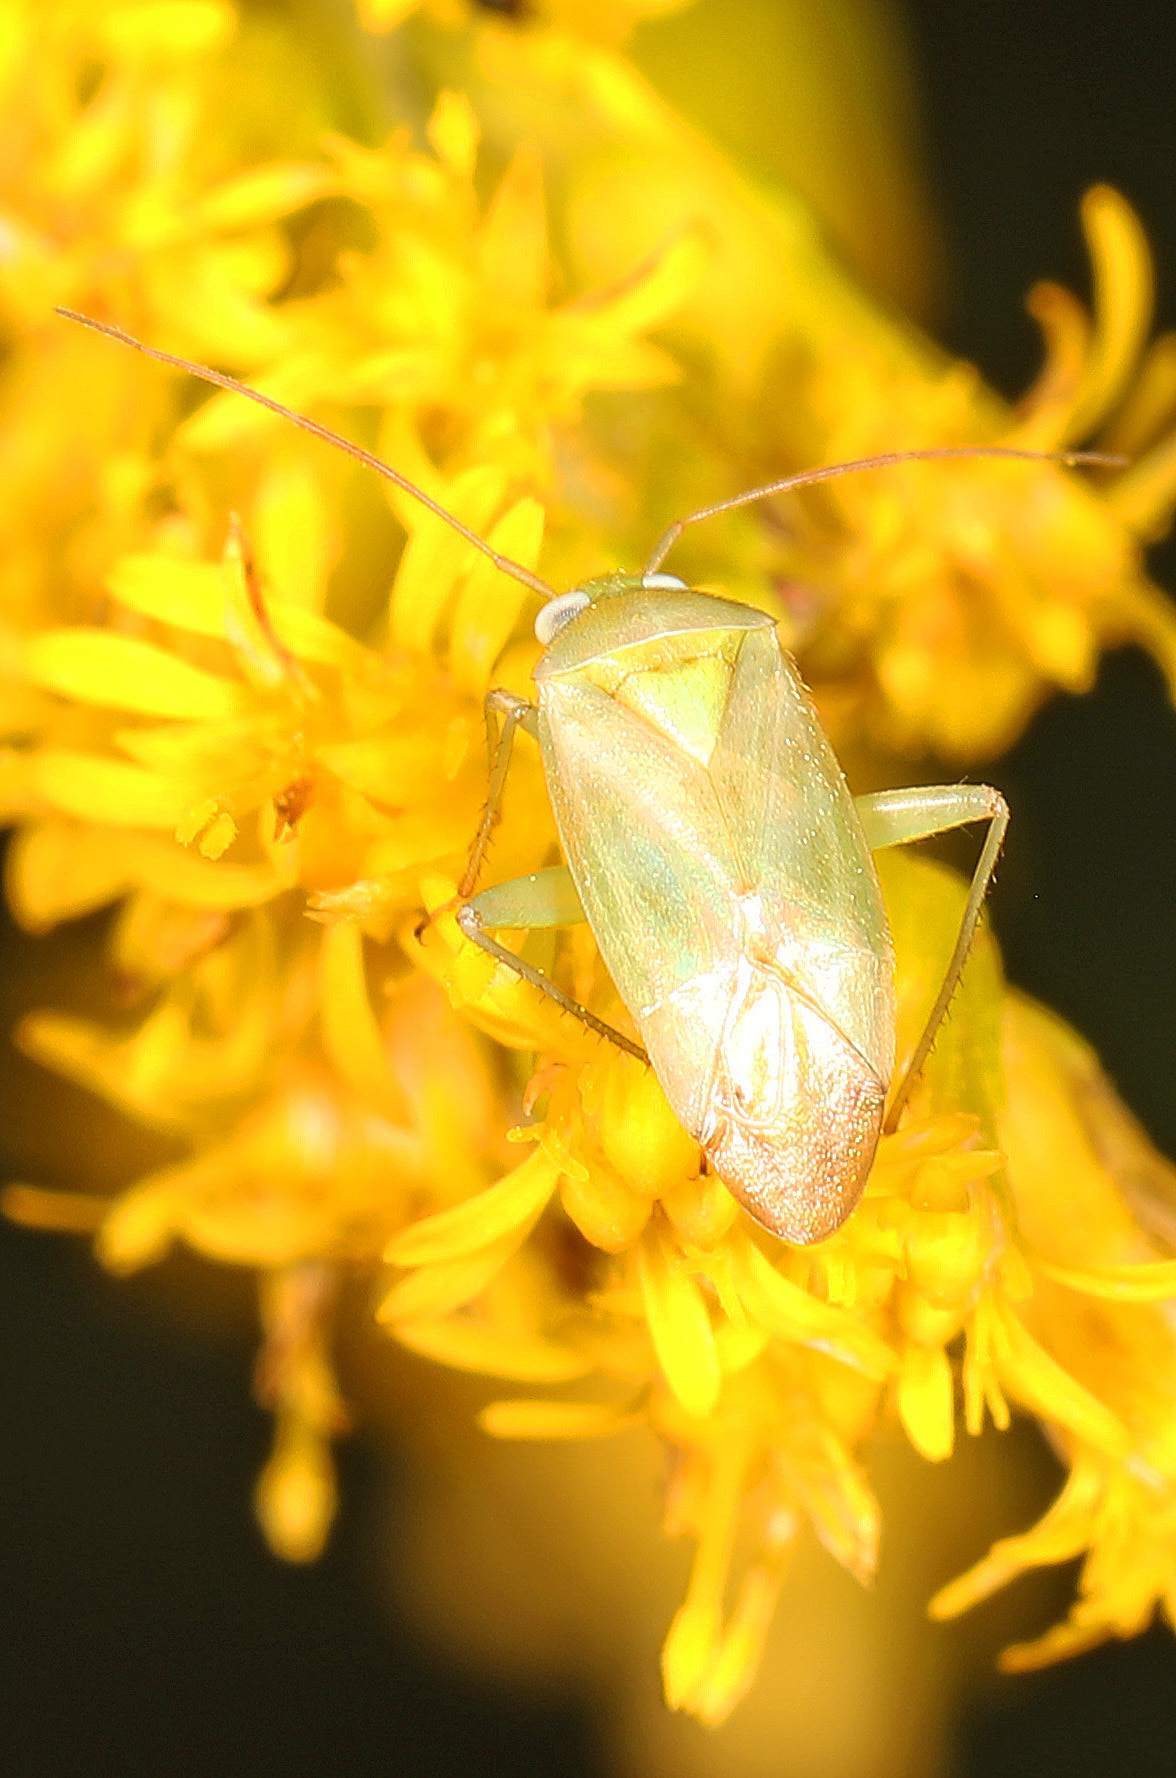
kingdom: Animalia
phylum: Arthropoda
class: Insecta
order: Hemiptera
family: Miridae
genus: Taylorilygus
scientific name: Taylorilygus apicalis
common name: Plant bug
